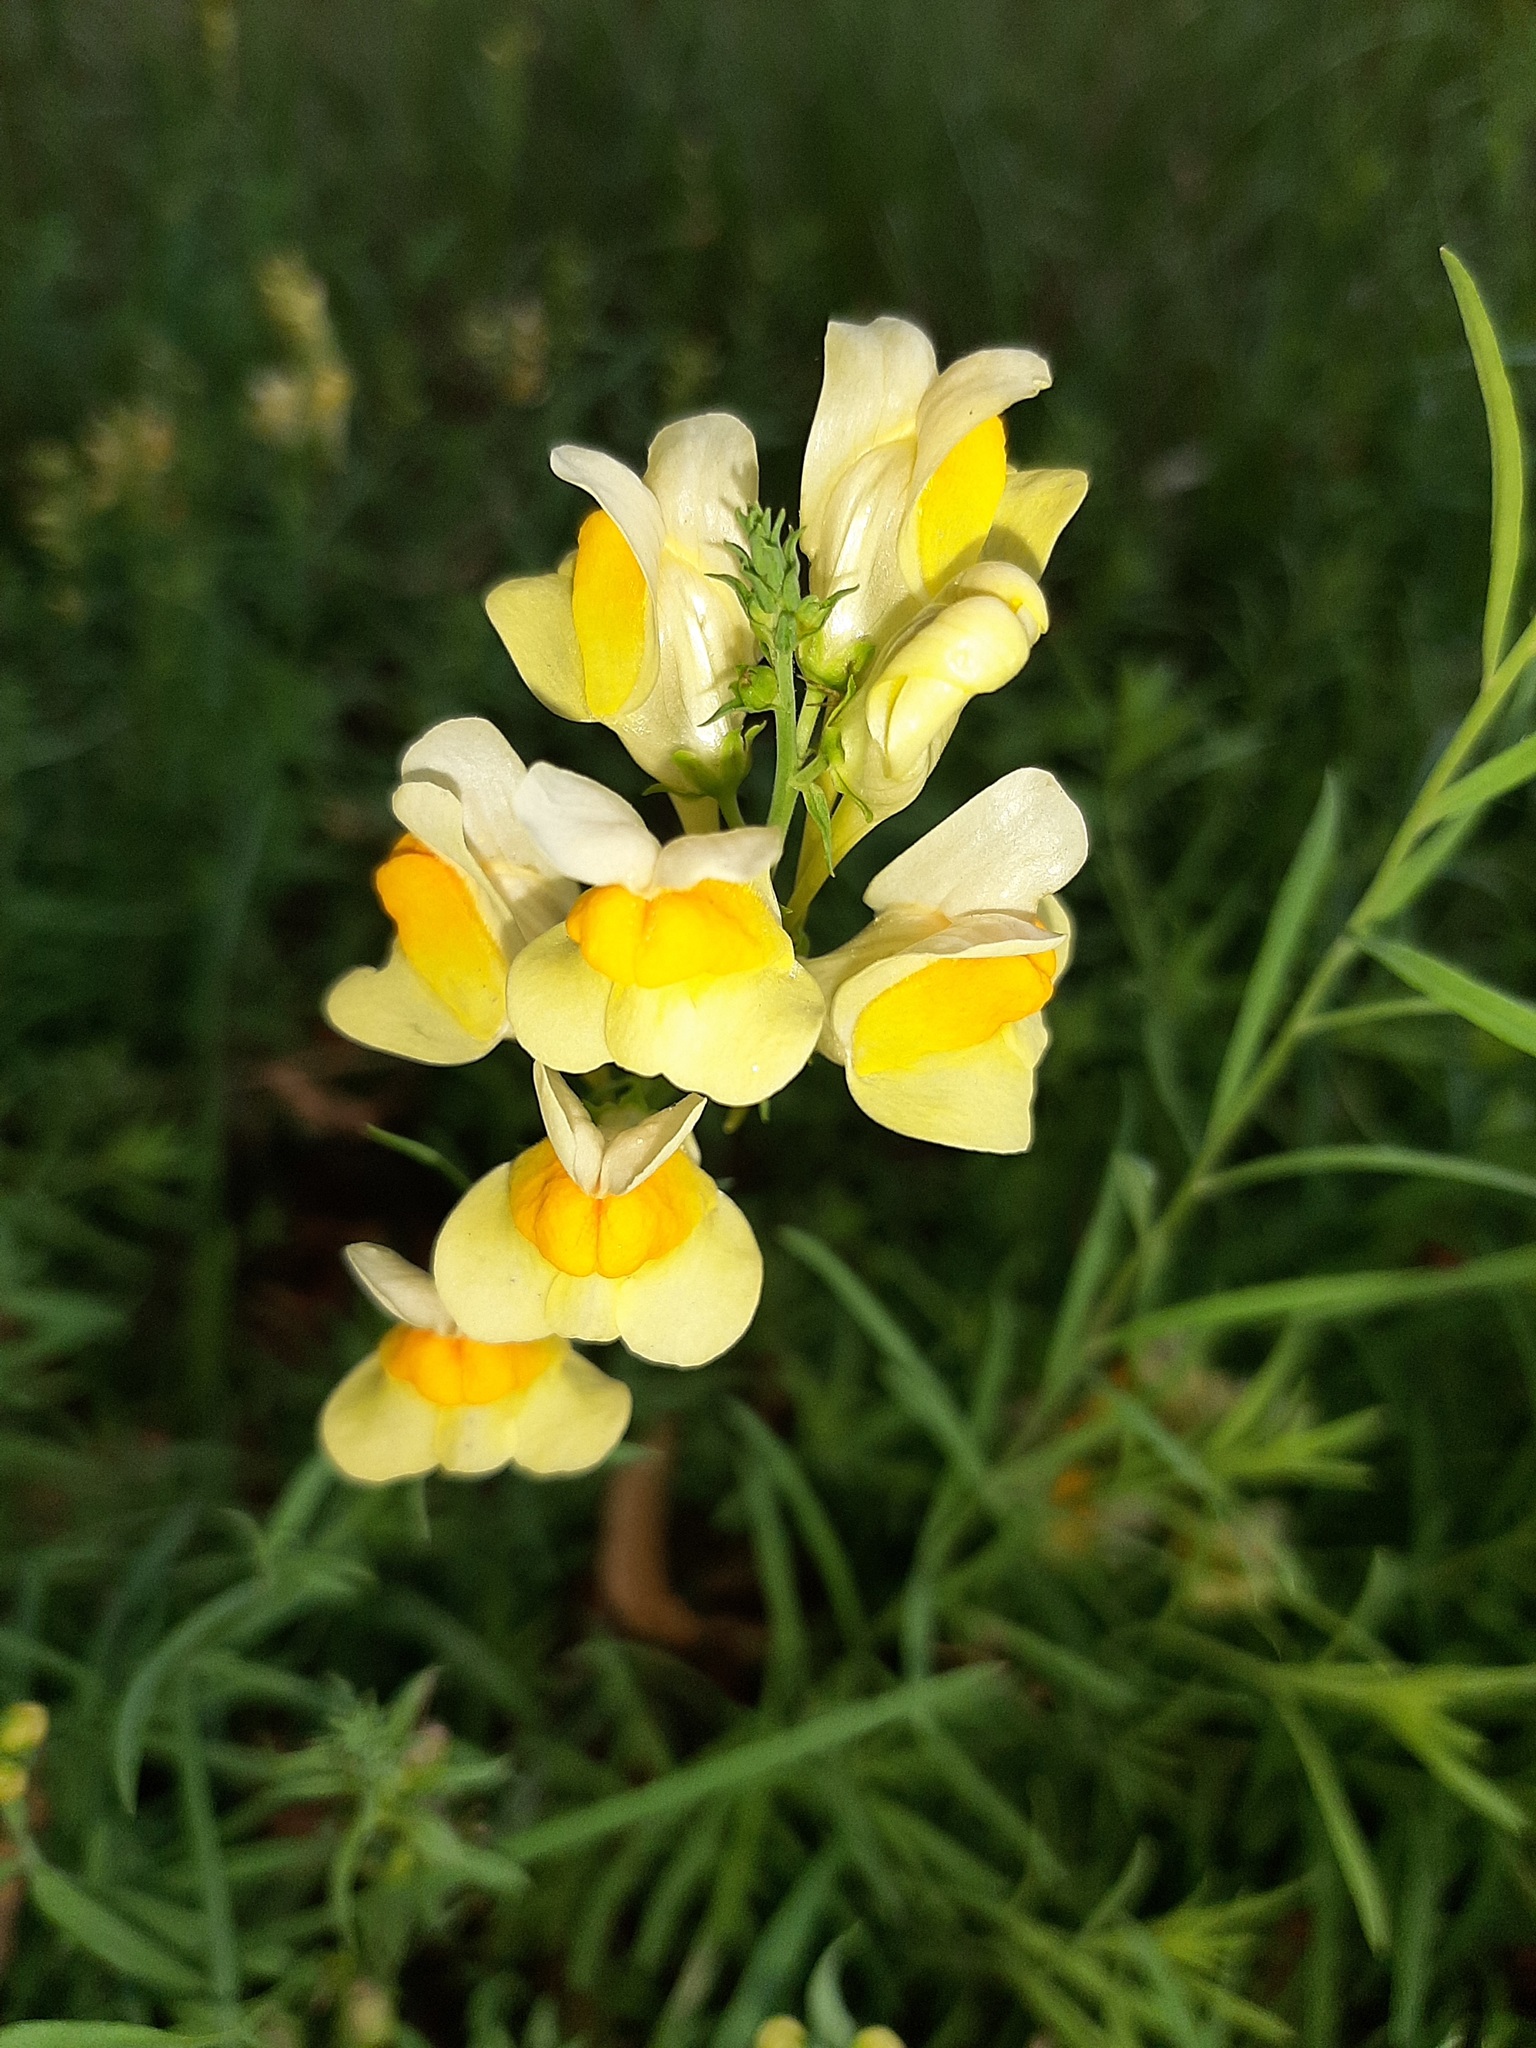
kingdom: Plantae
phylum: Tracheophyta
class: Magnoliopsida
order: Lamiales
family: Plantaginaceae
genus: Linaria
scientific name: Linaria vulgaris
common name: Butter and eggs
